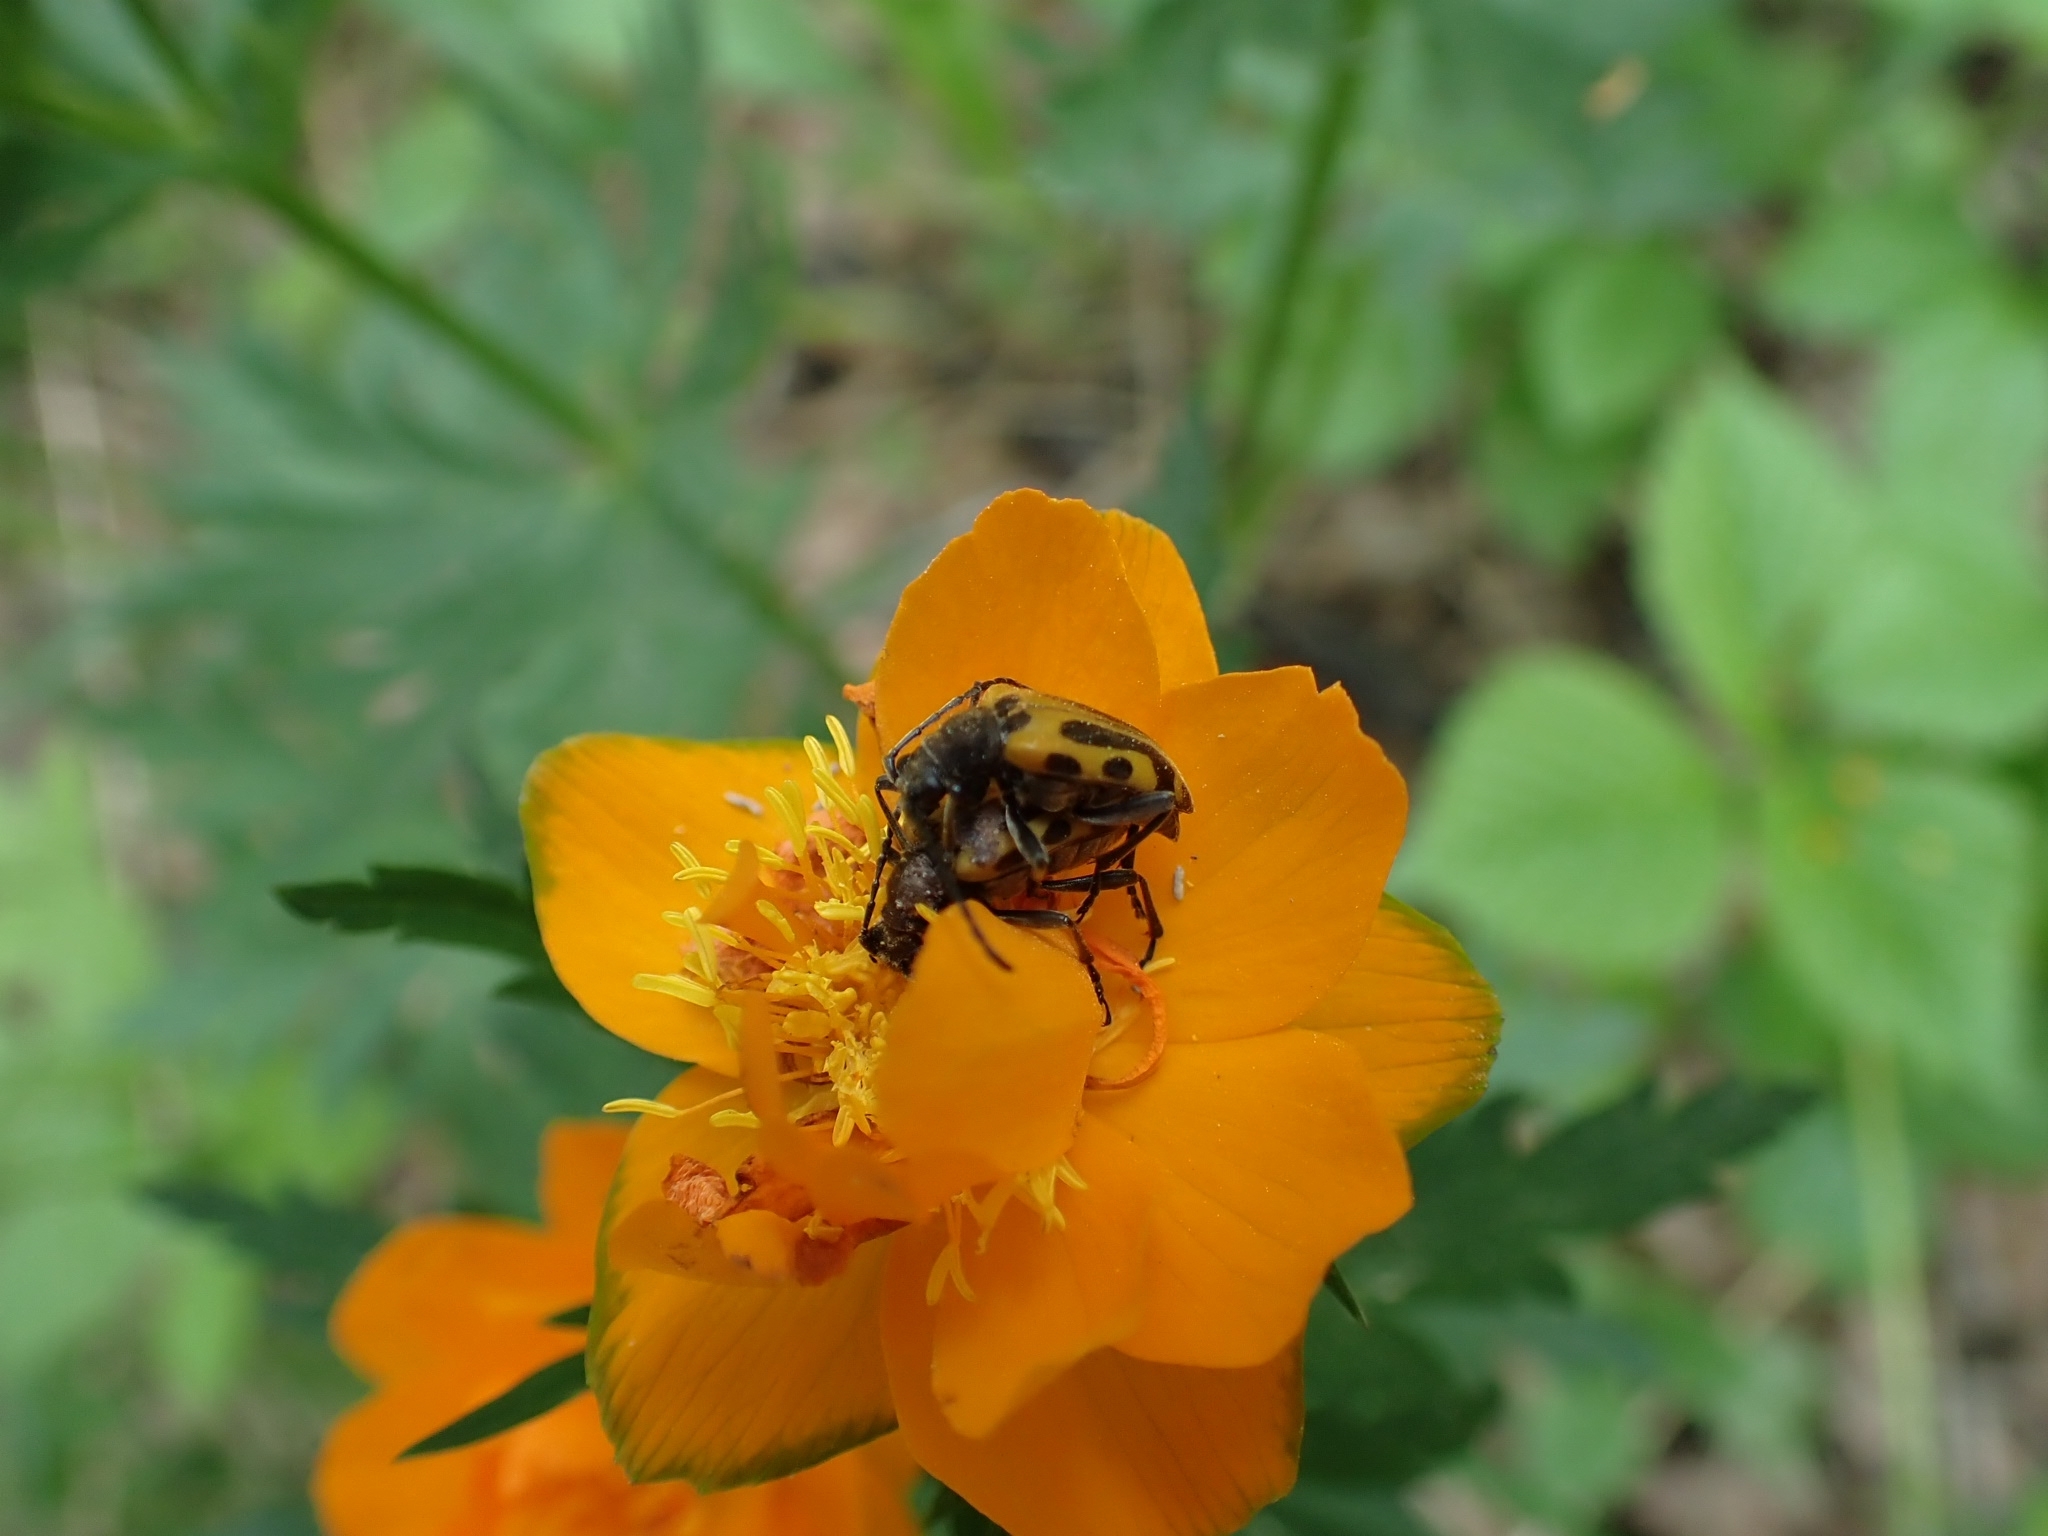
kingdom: Animalia
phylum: Arthropoda
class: Insecta
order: Coleoptera
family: Cerambycidae
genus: Brachyta
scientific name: Brachyta interrogationis
